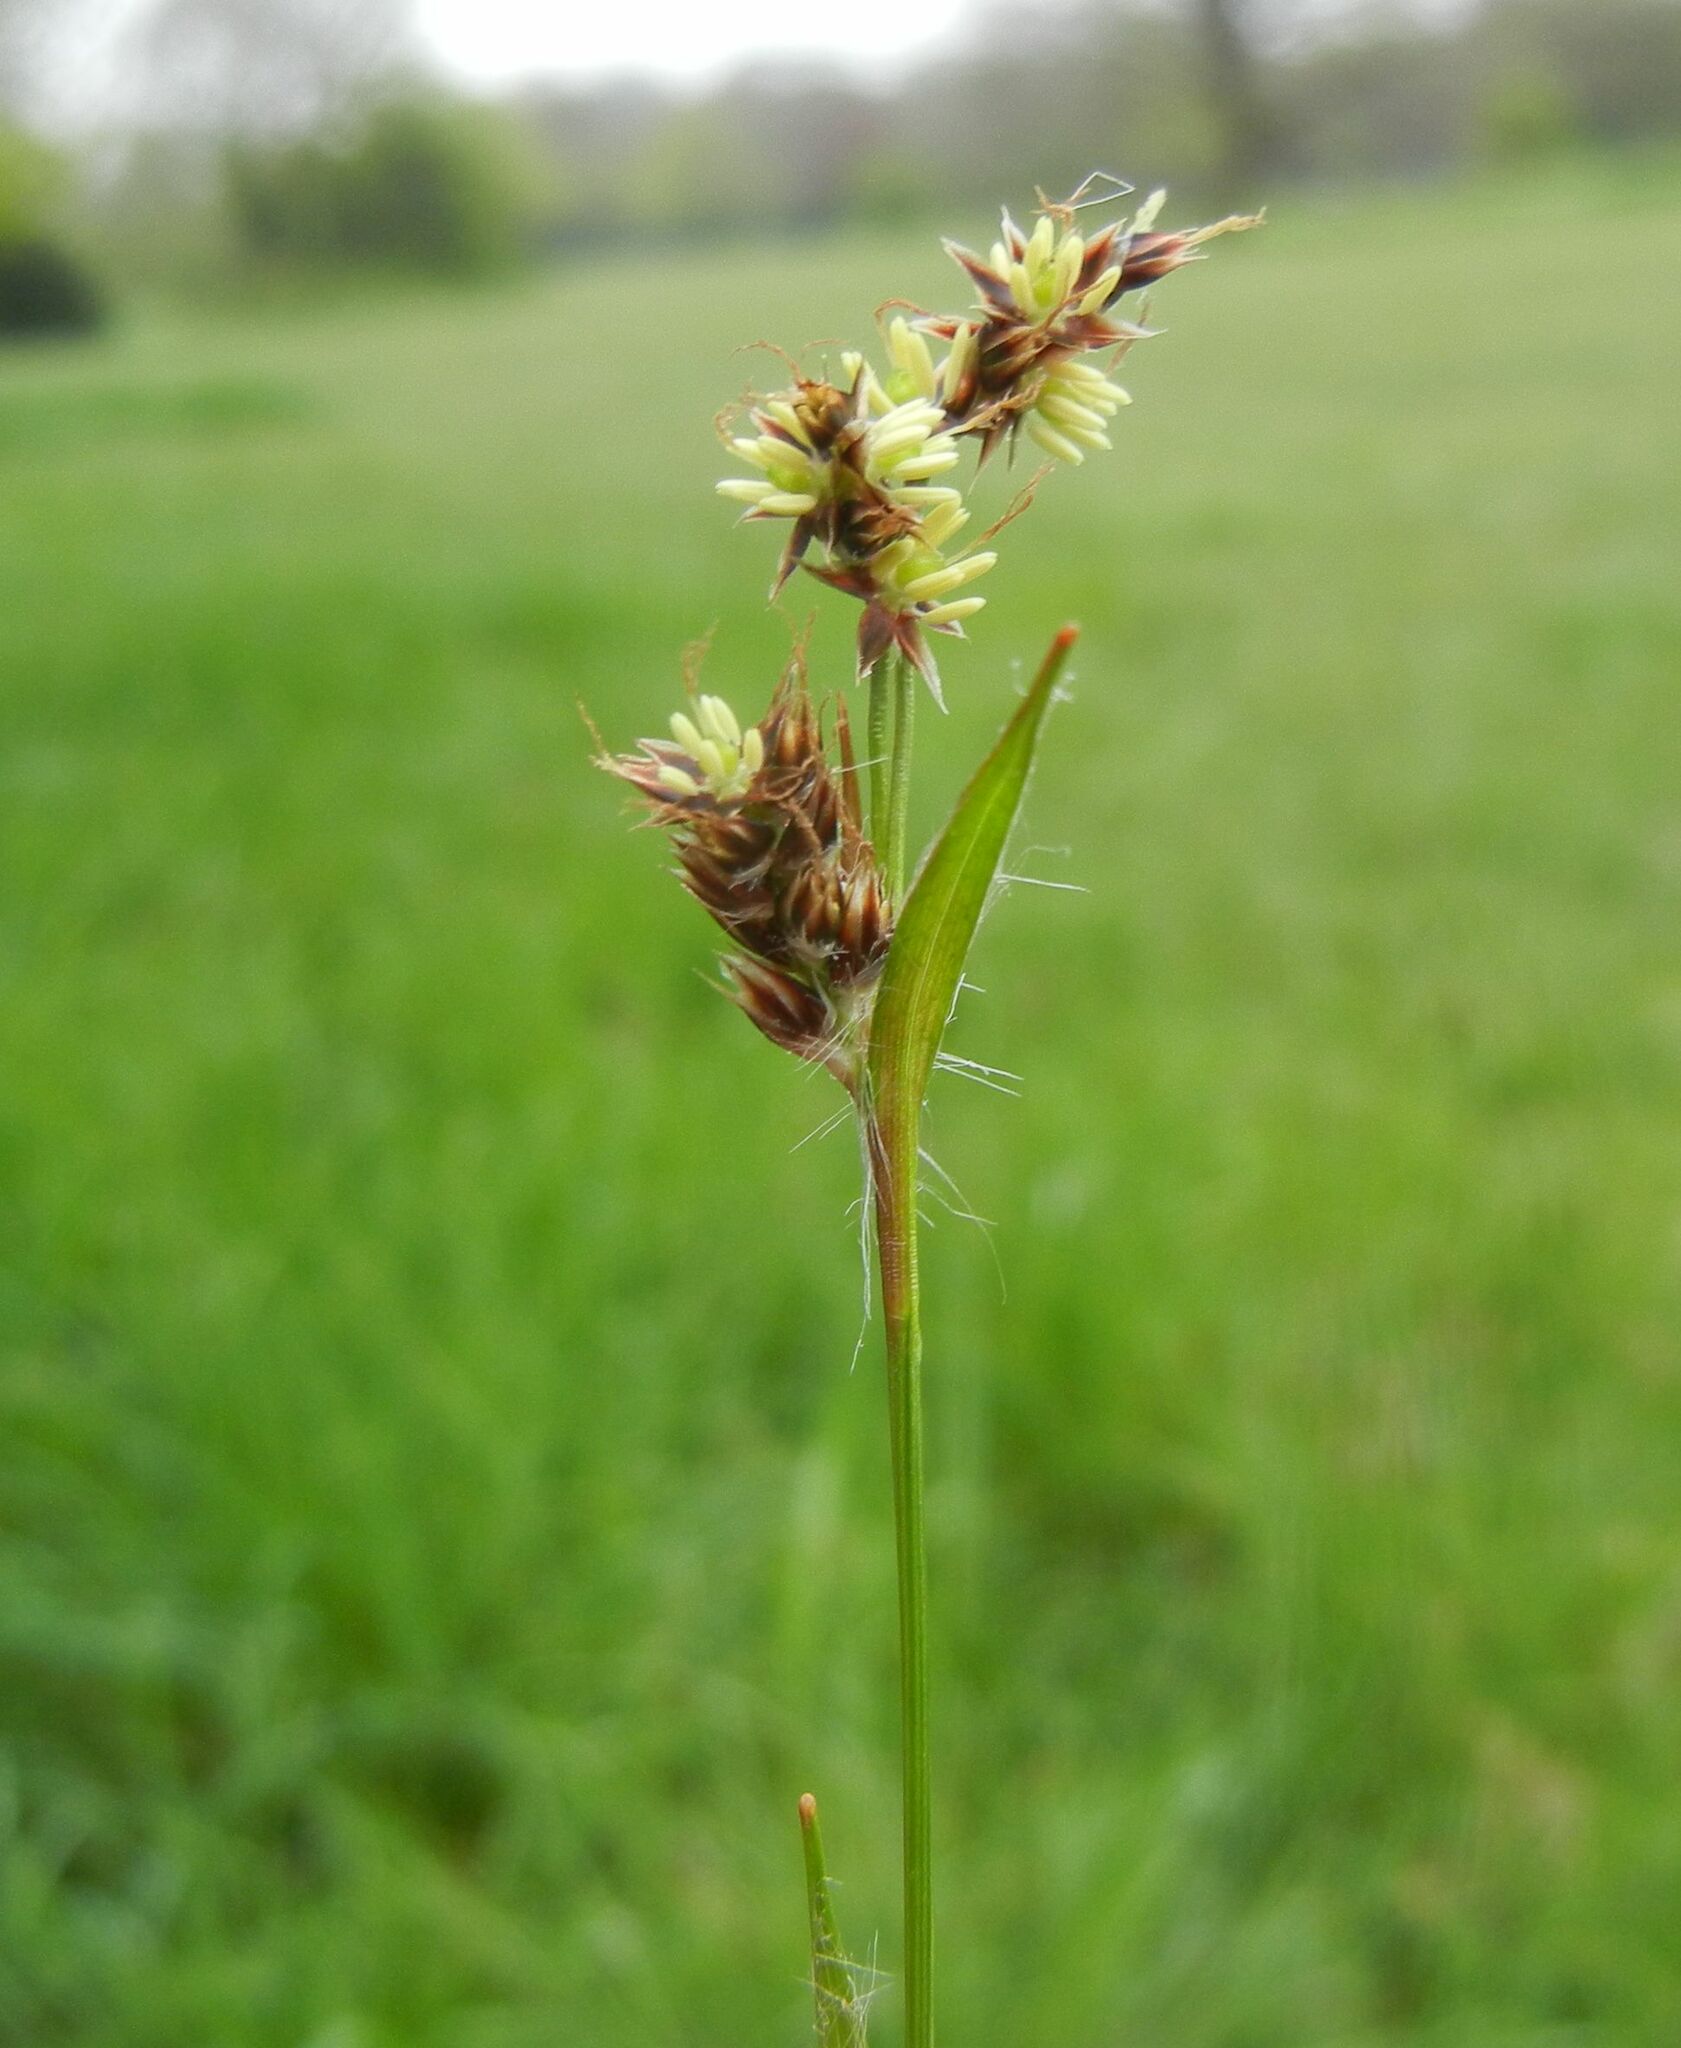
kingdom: Plantae
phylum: Tracheophyta
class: Liliopsida
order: Poales
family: Juncaceae
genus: Luzula
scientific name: Luzula campestris
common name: Field wood-rush
